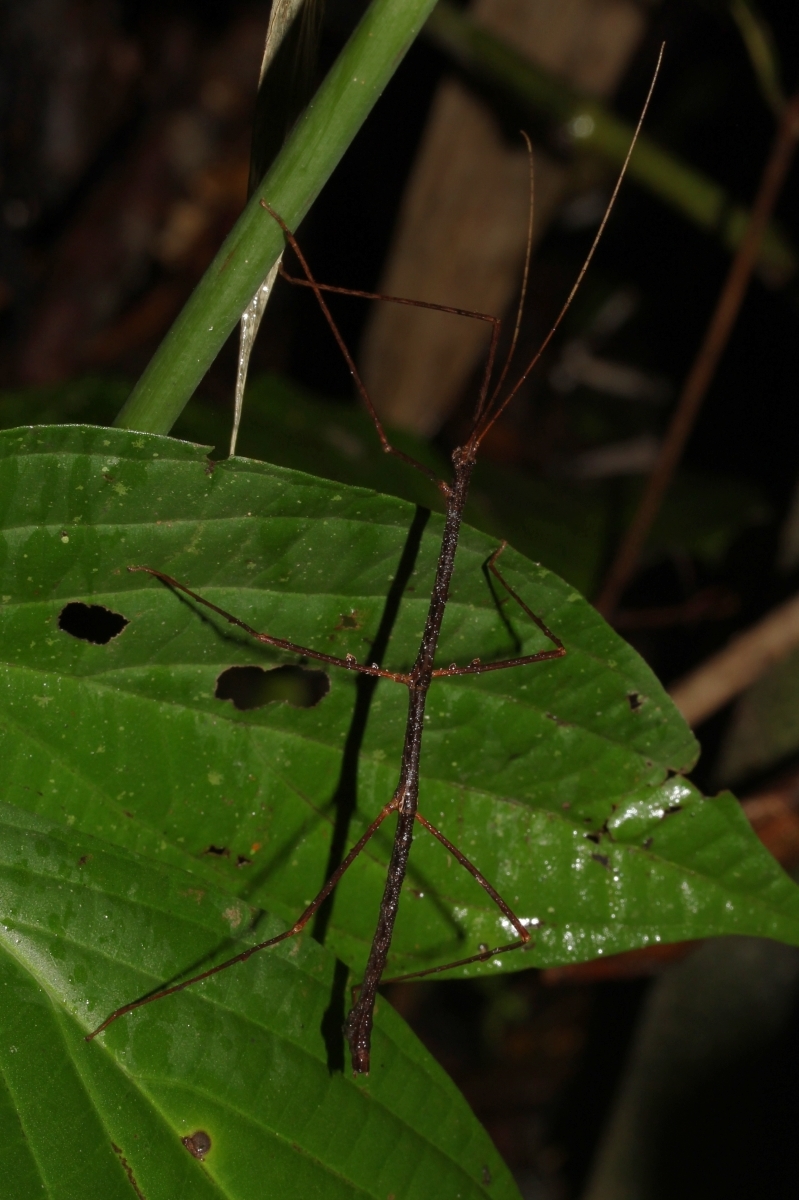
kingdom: Animalia
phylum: Arthropoda
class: Insecta
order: Phasmida
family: Diapheromeridae
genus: Lobolibethra
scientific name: Lobolibethra
